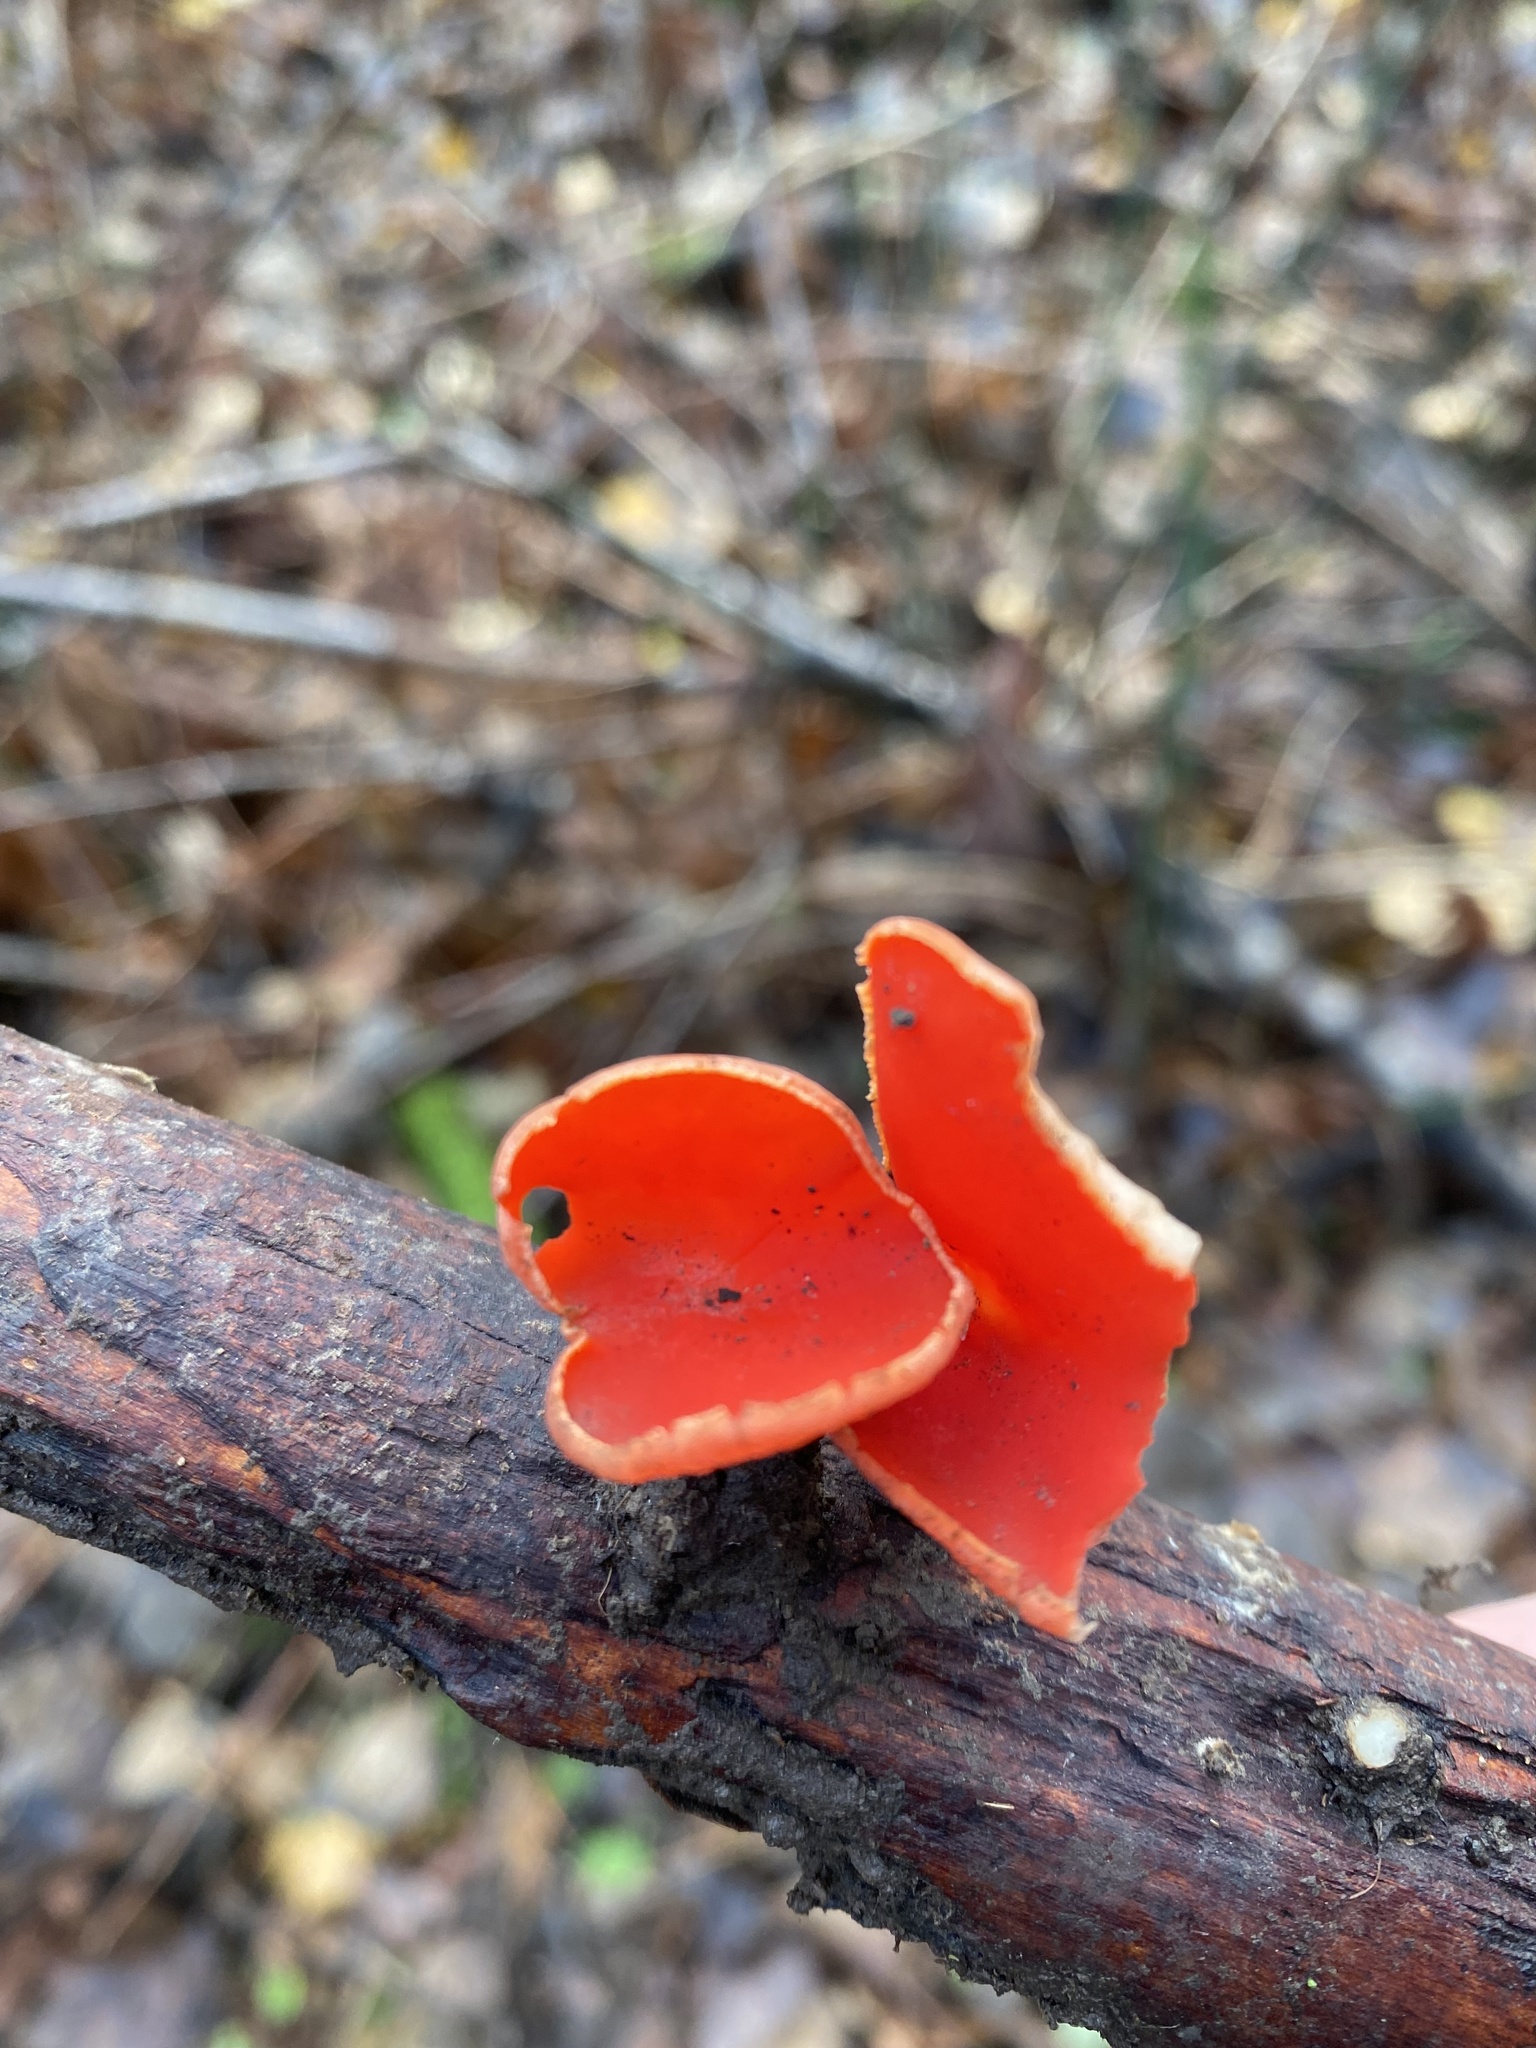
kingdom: Fungi
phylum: Ascomycota
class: Pezizomycetes
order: Pezizales
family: Sarcoscyphaceae
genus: Sarcoscypha
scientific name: Sarcoscypha coccinea
